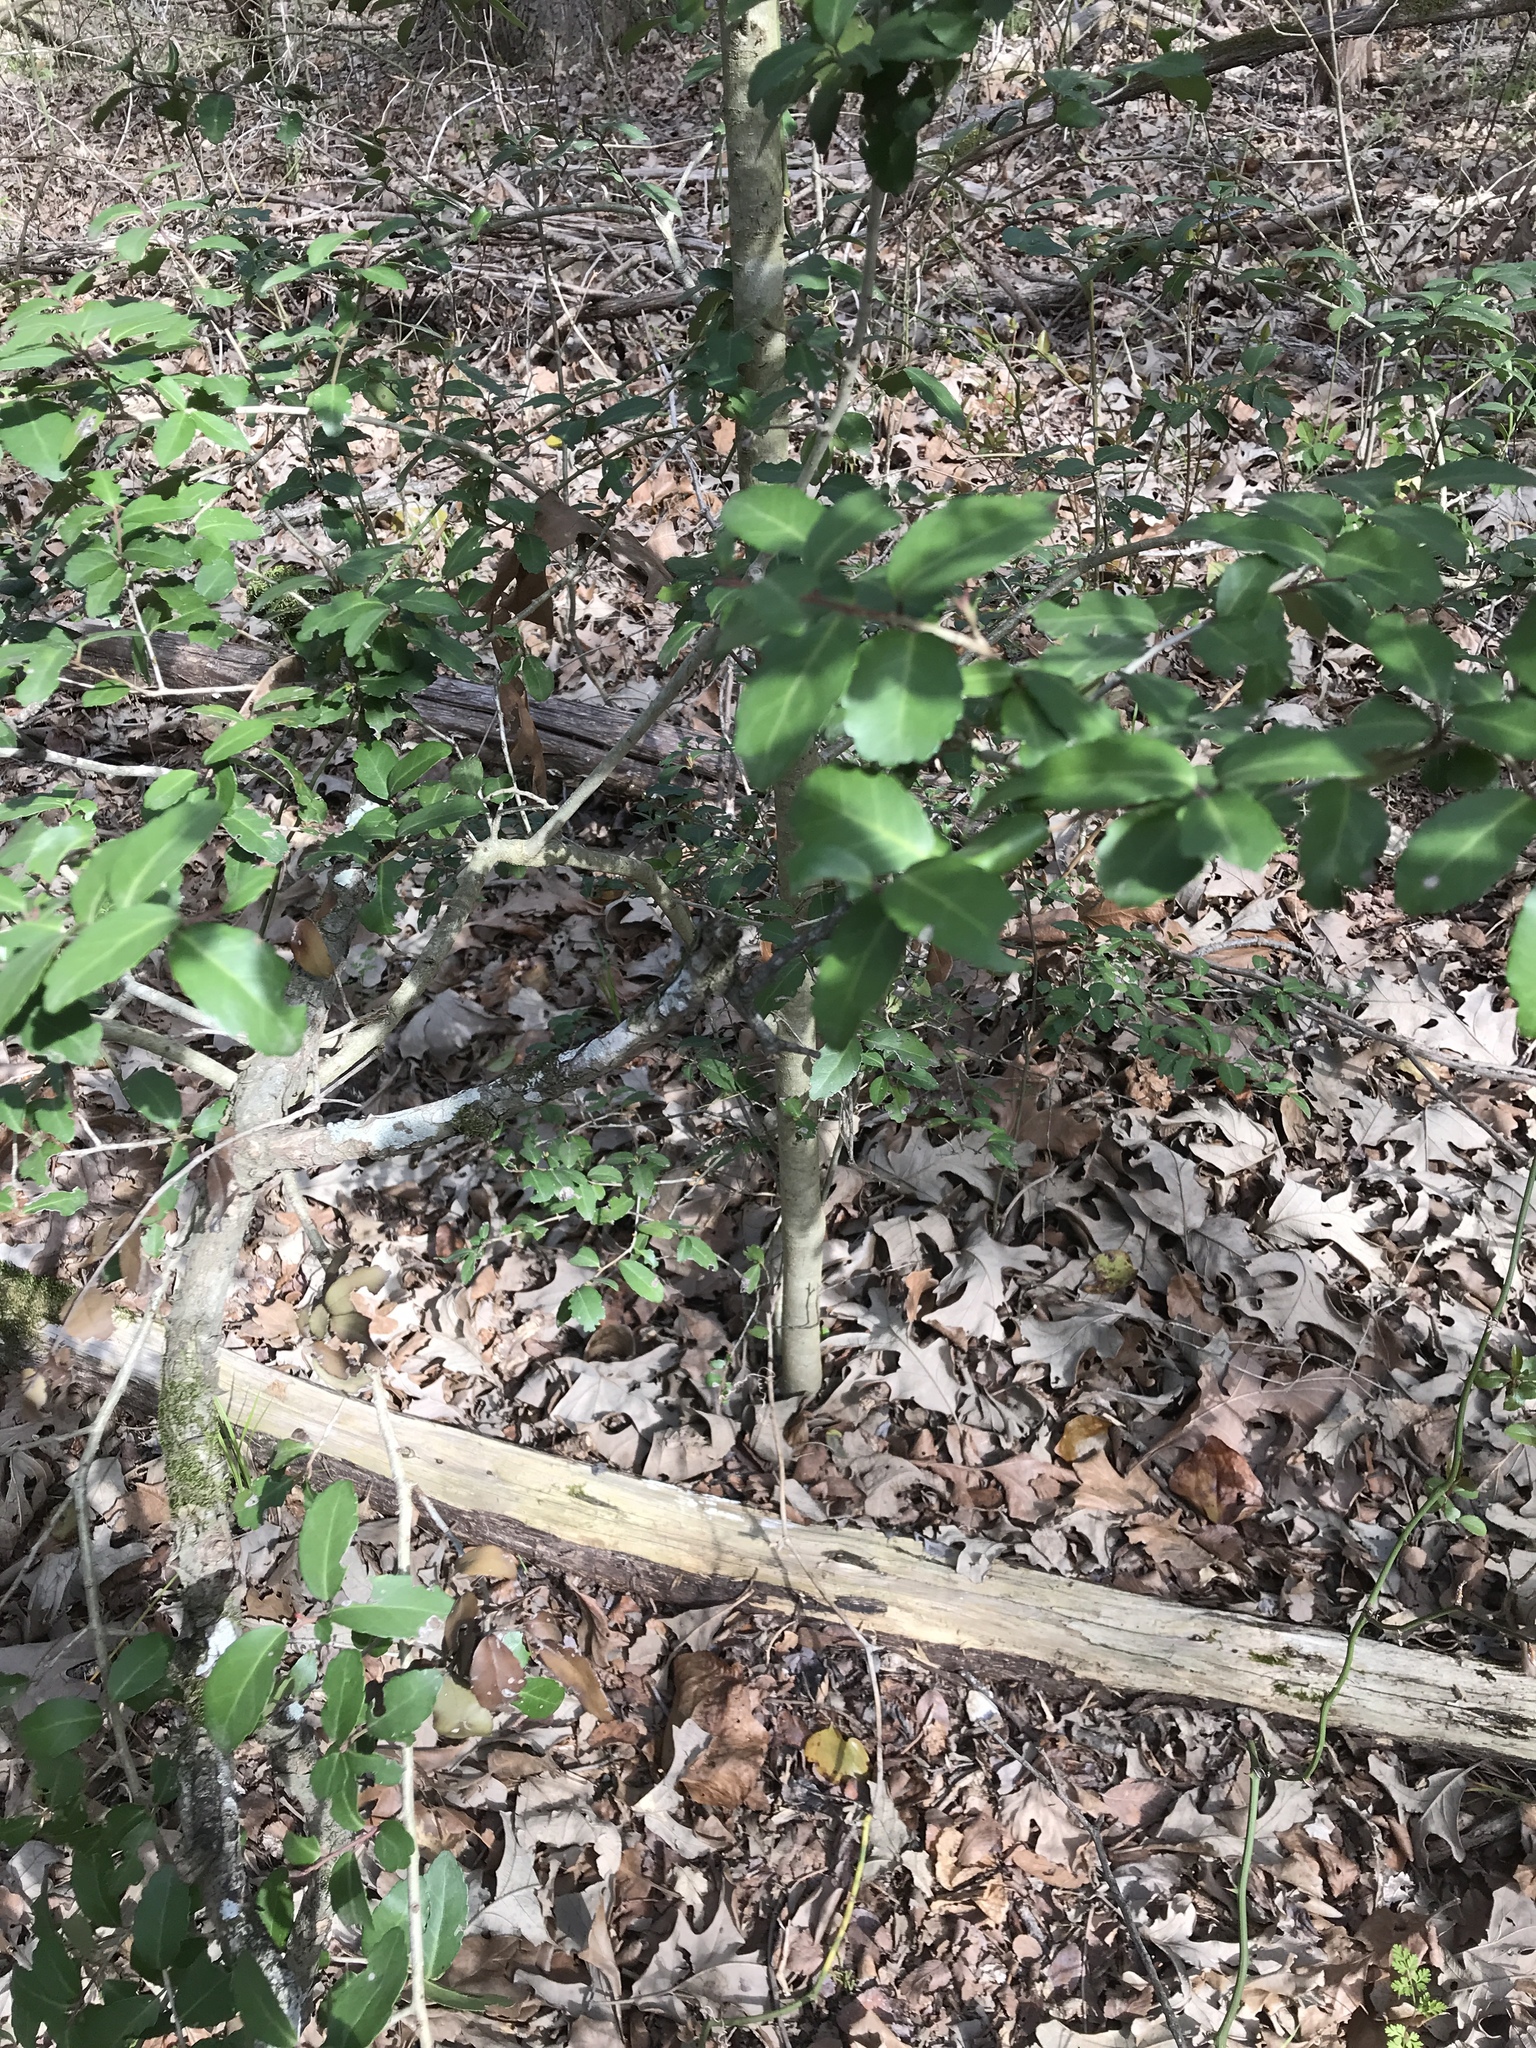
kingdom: Plantae
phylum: Tracheophyta
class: Magnoliopsida
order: Aquifoliales
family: Aquifoliaceae
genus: Ilex
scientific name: Ilex vomitoria
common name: Yaupon holly
